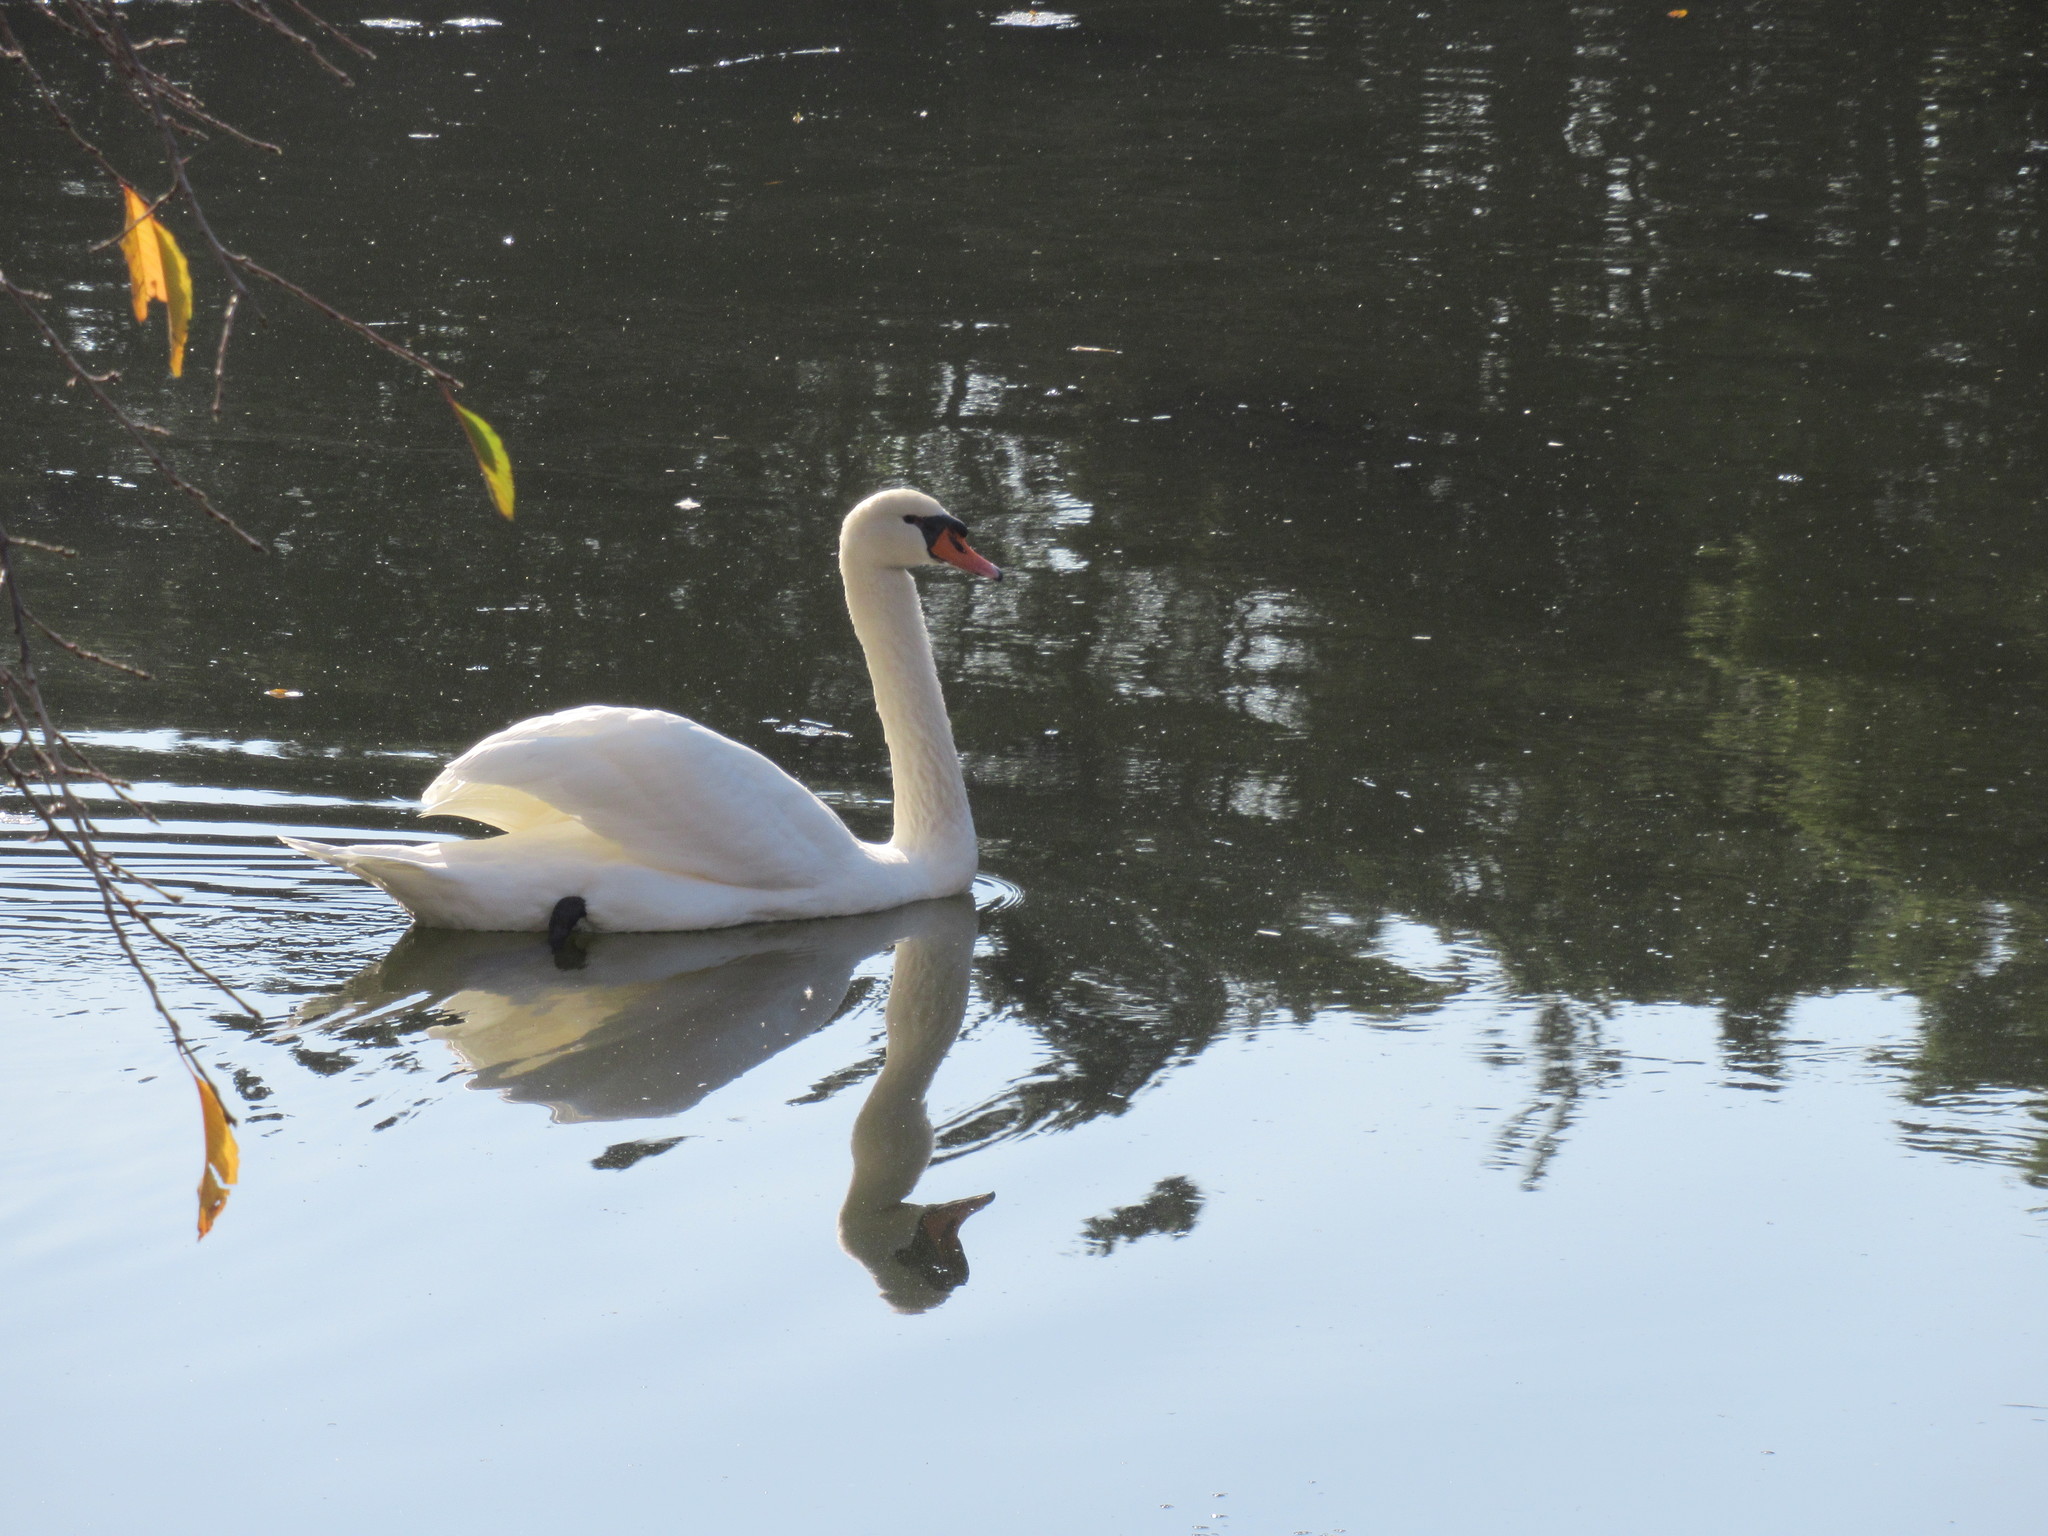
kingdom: Animalia
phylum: Chordata
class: Aves
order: Anseriformes
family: Anatidae
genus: Cygnus
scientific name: Cygnus olor
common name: Mute swan
